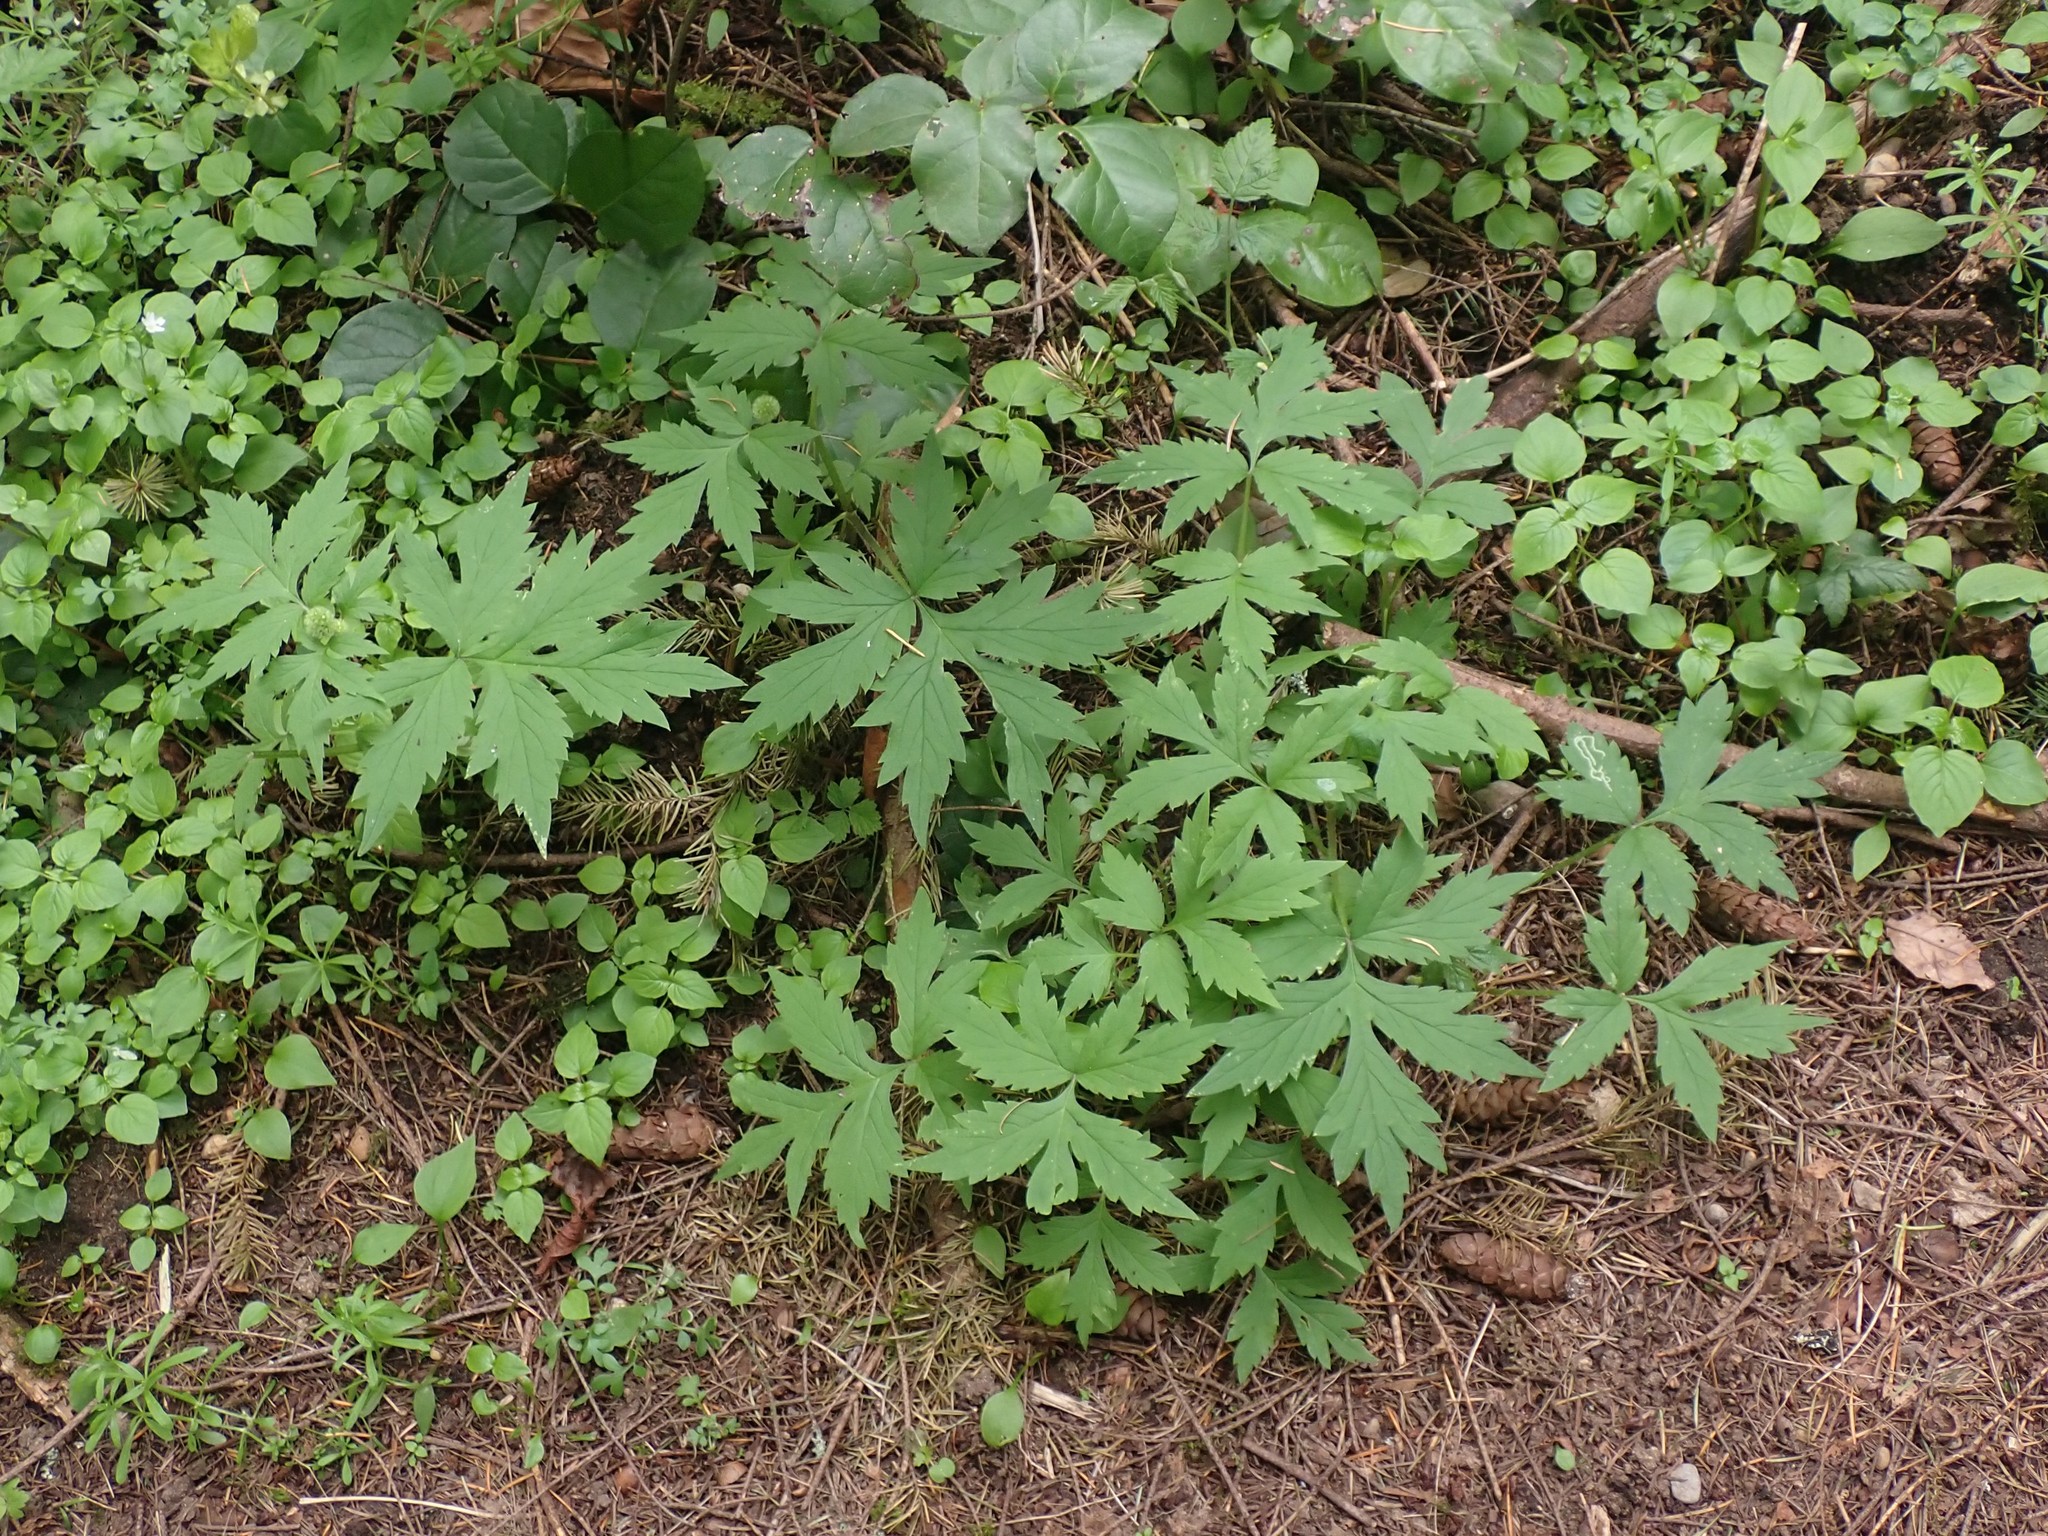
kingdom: Plantae
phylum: Tracheophyta
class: Magnoliopsida
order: Boraginales
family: Hydrophyllaceae
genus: Hydrophyllum
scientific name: Hydrophyllum tenuipes
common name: Pacific waterleaf
